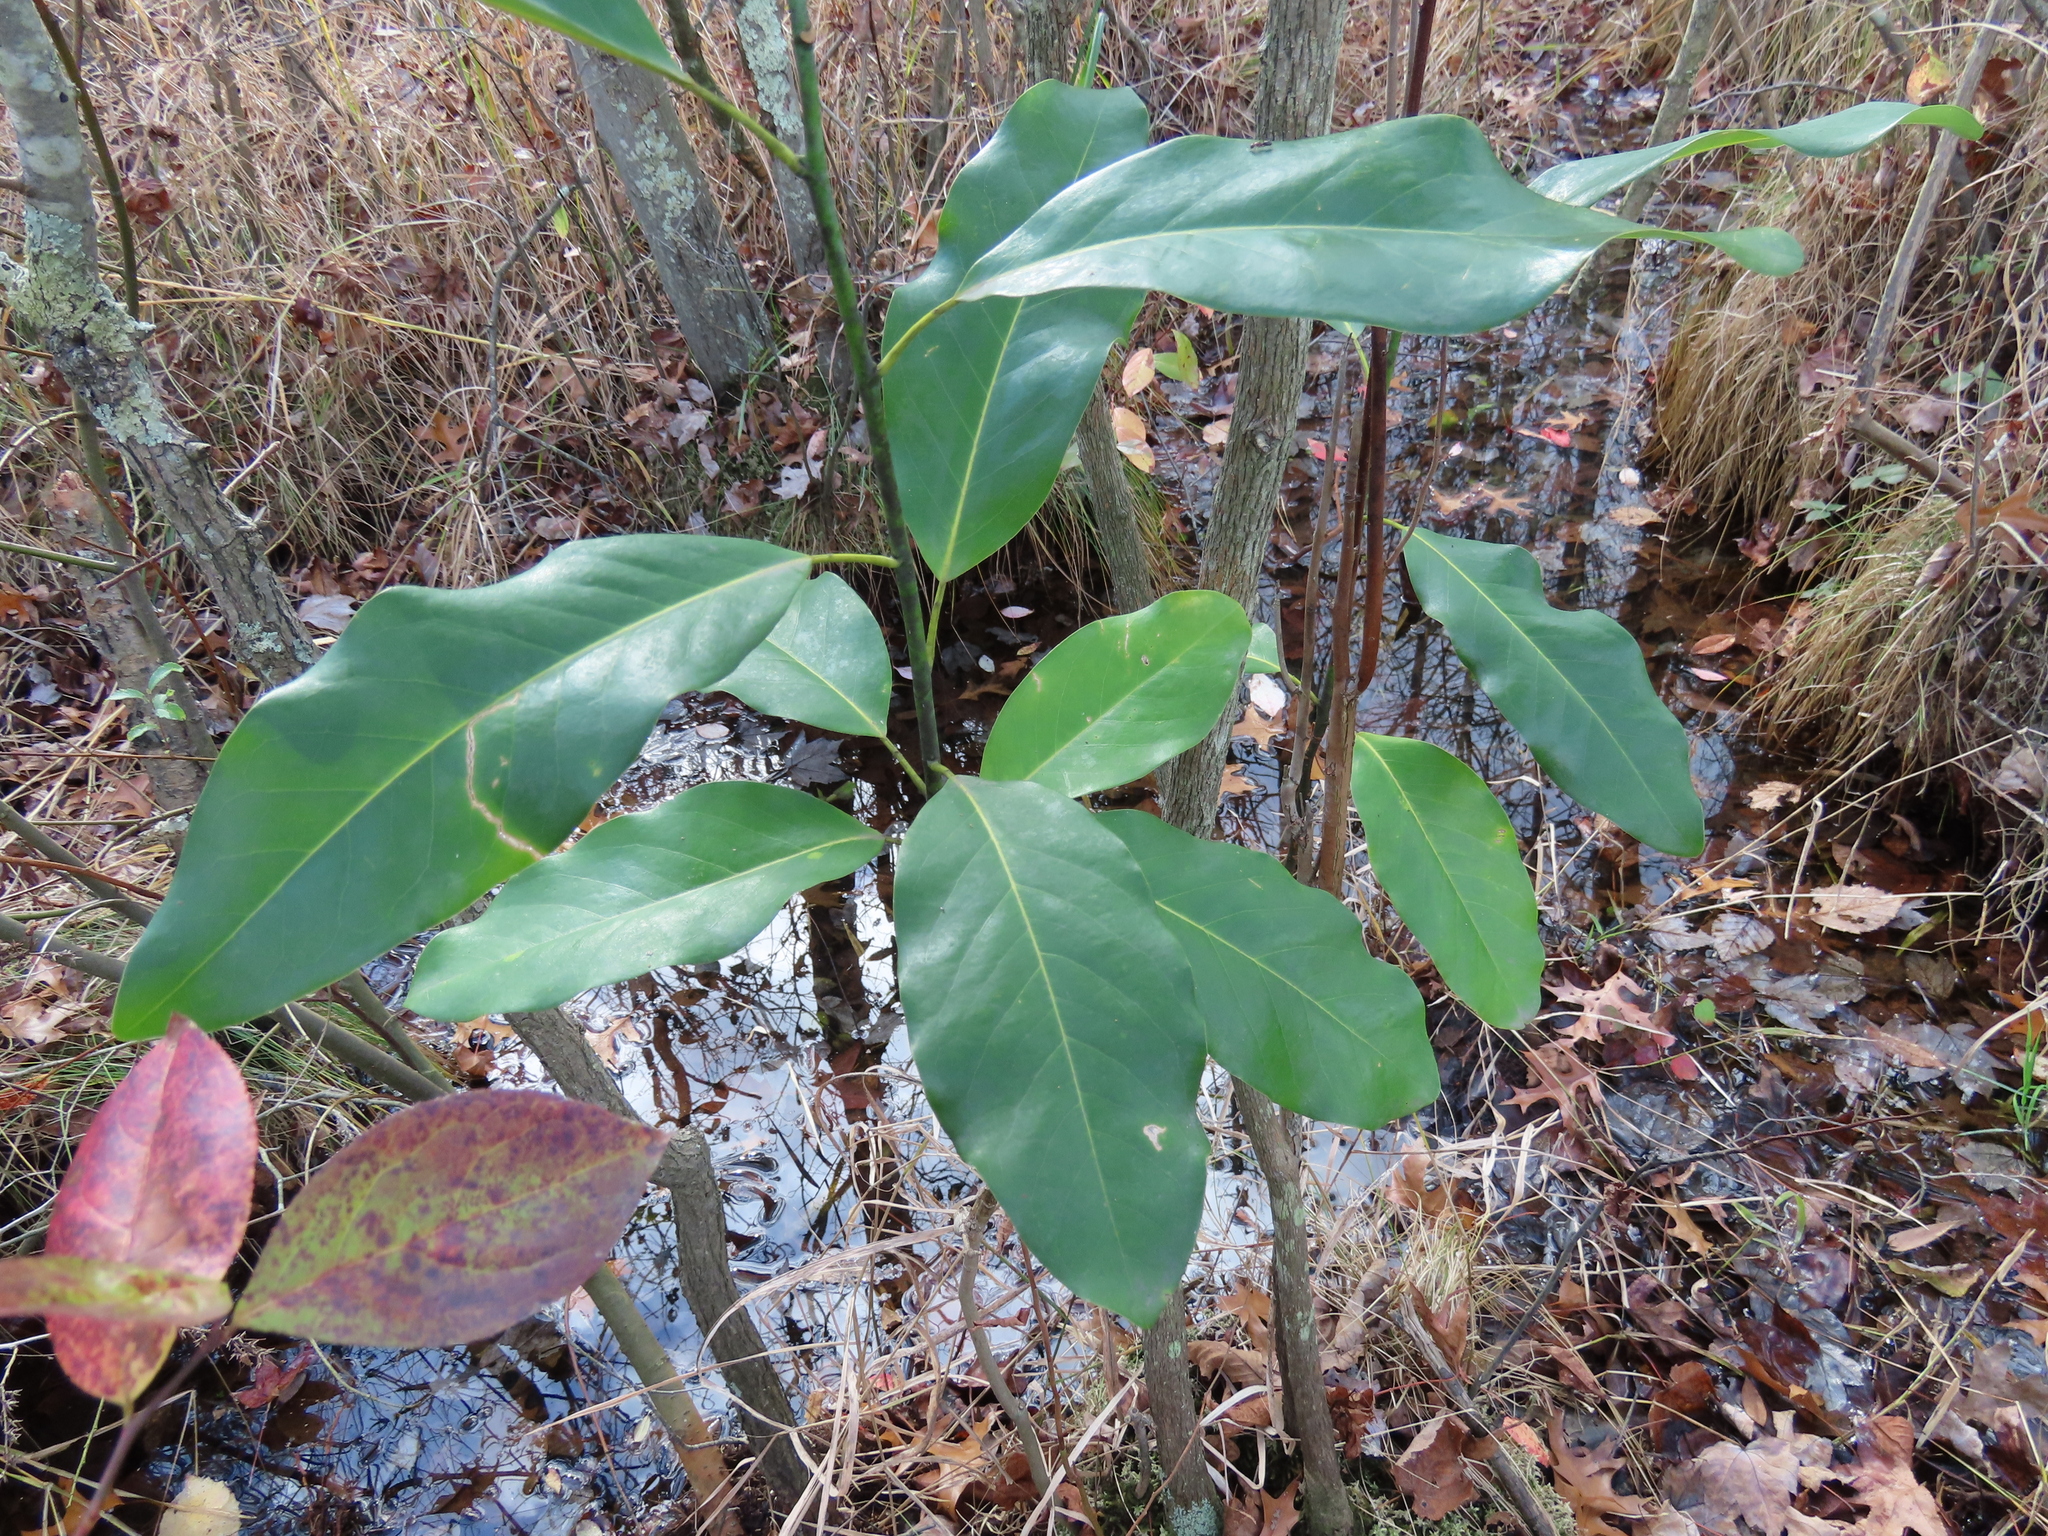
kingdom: Plantae
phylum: Tracheophyta
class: Magnoliopsida
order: Magnoliales
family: Magnoliaceae
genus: Magnolia
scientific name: Magnolia virginiana
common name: Swamp bay
